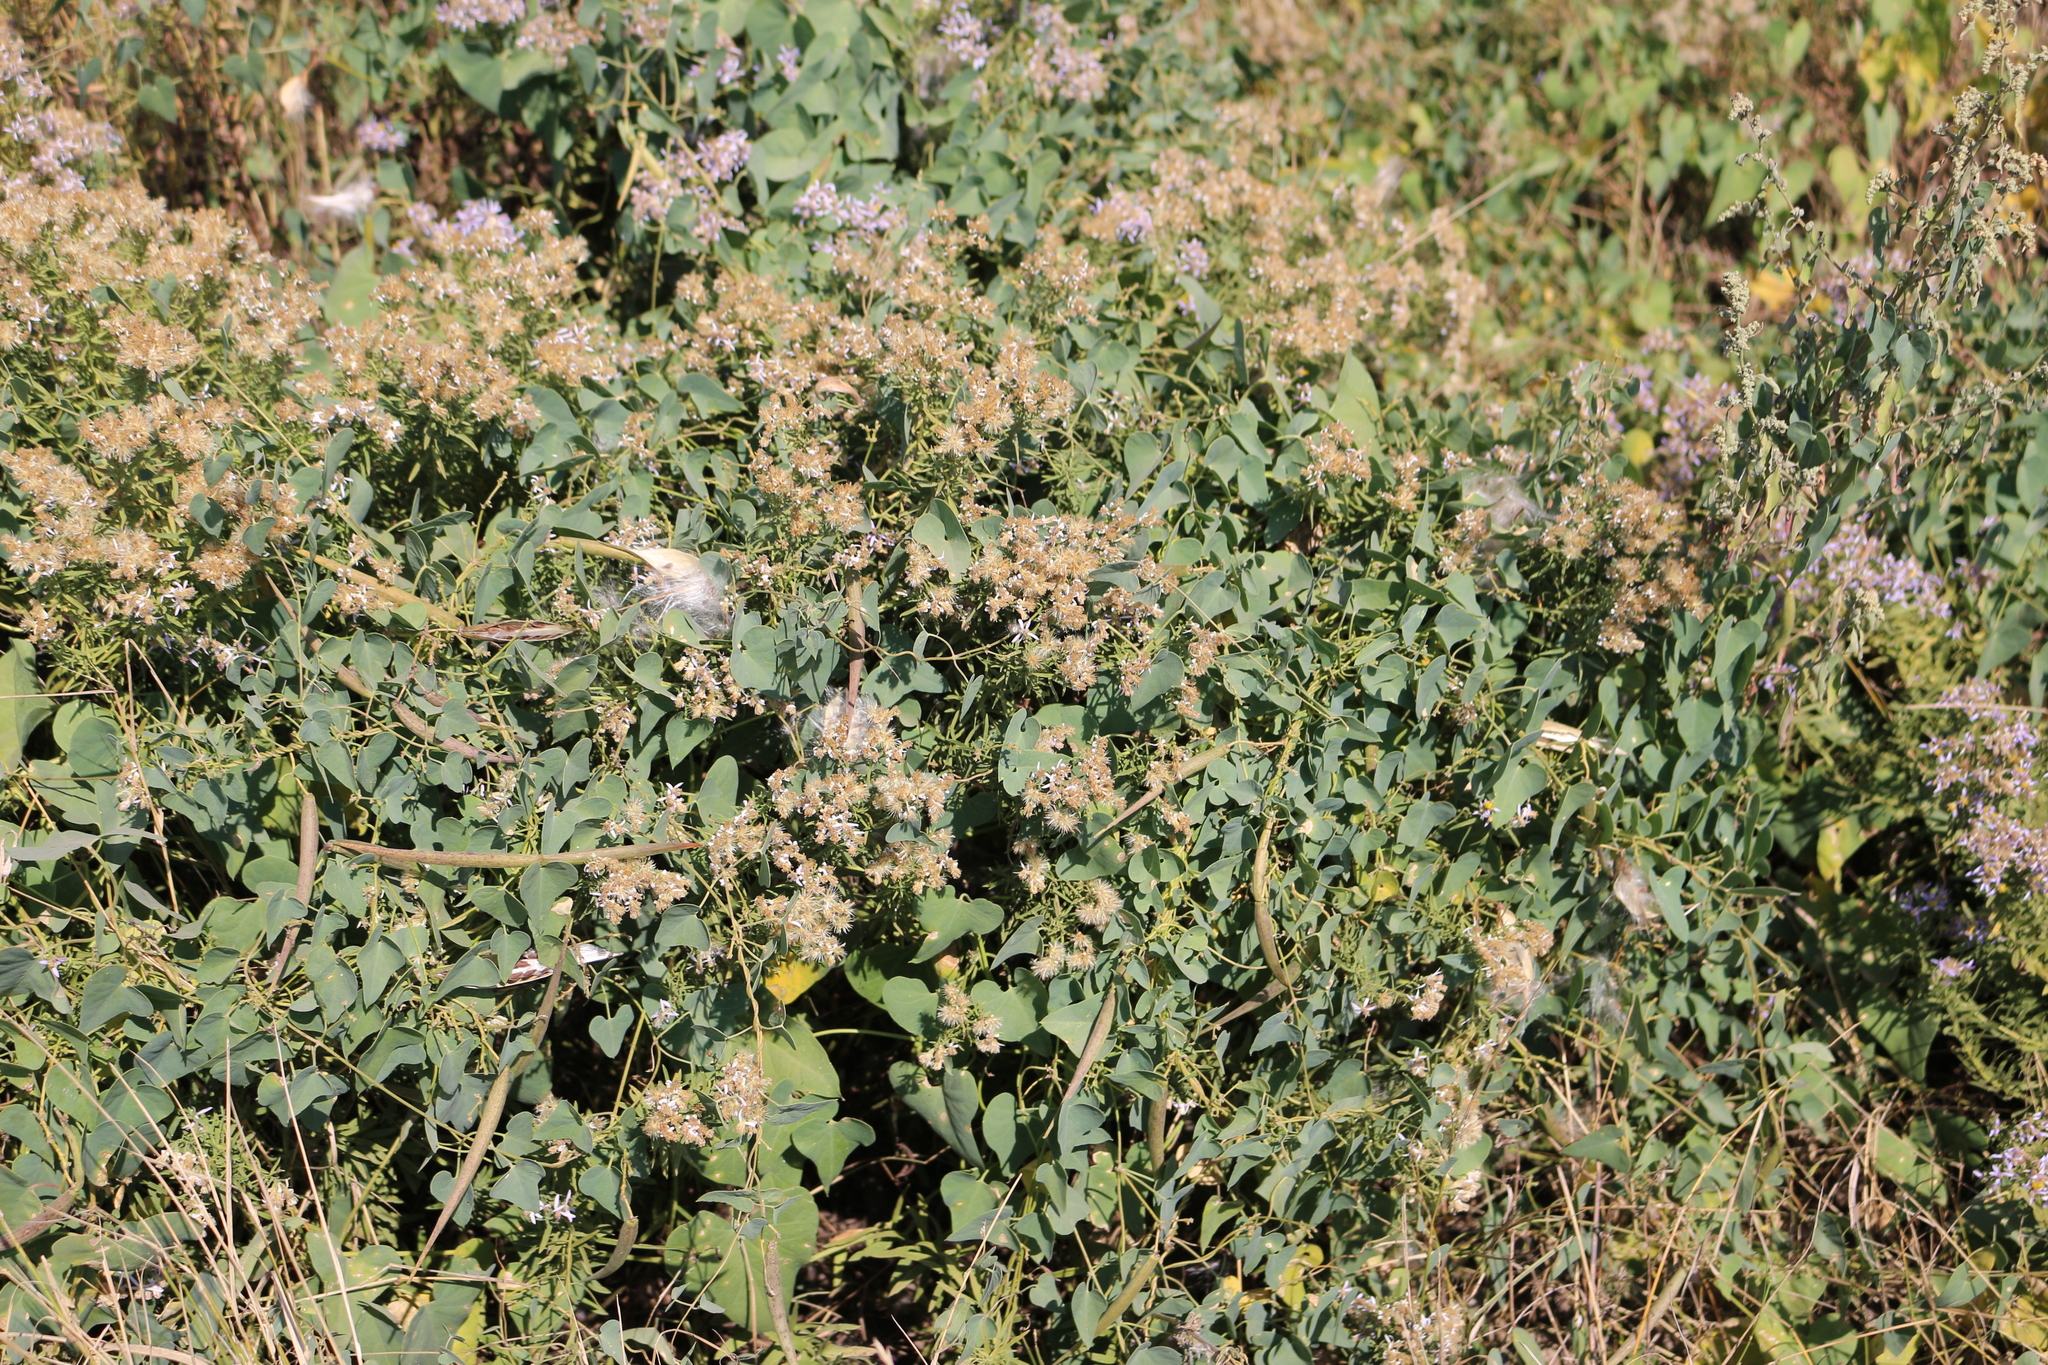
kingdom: Plantae
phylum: Tracheophyta
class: Magnoliopsida
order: Gentianales
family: Apocynaceae
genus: Cynanchum
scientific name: Cynanchum acutum
